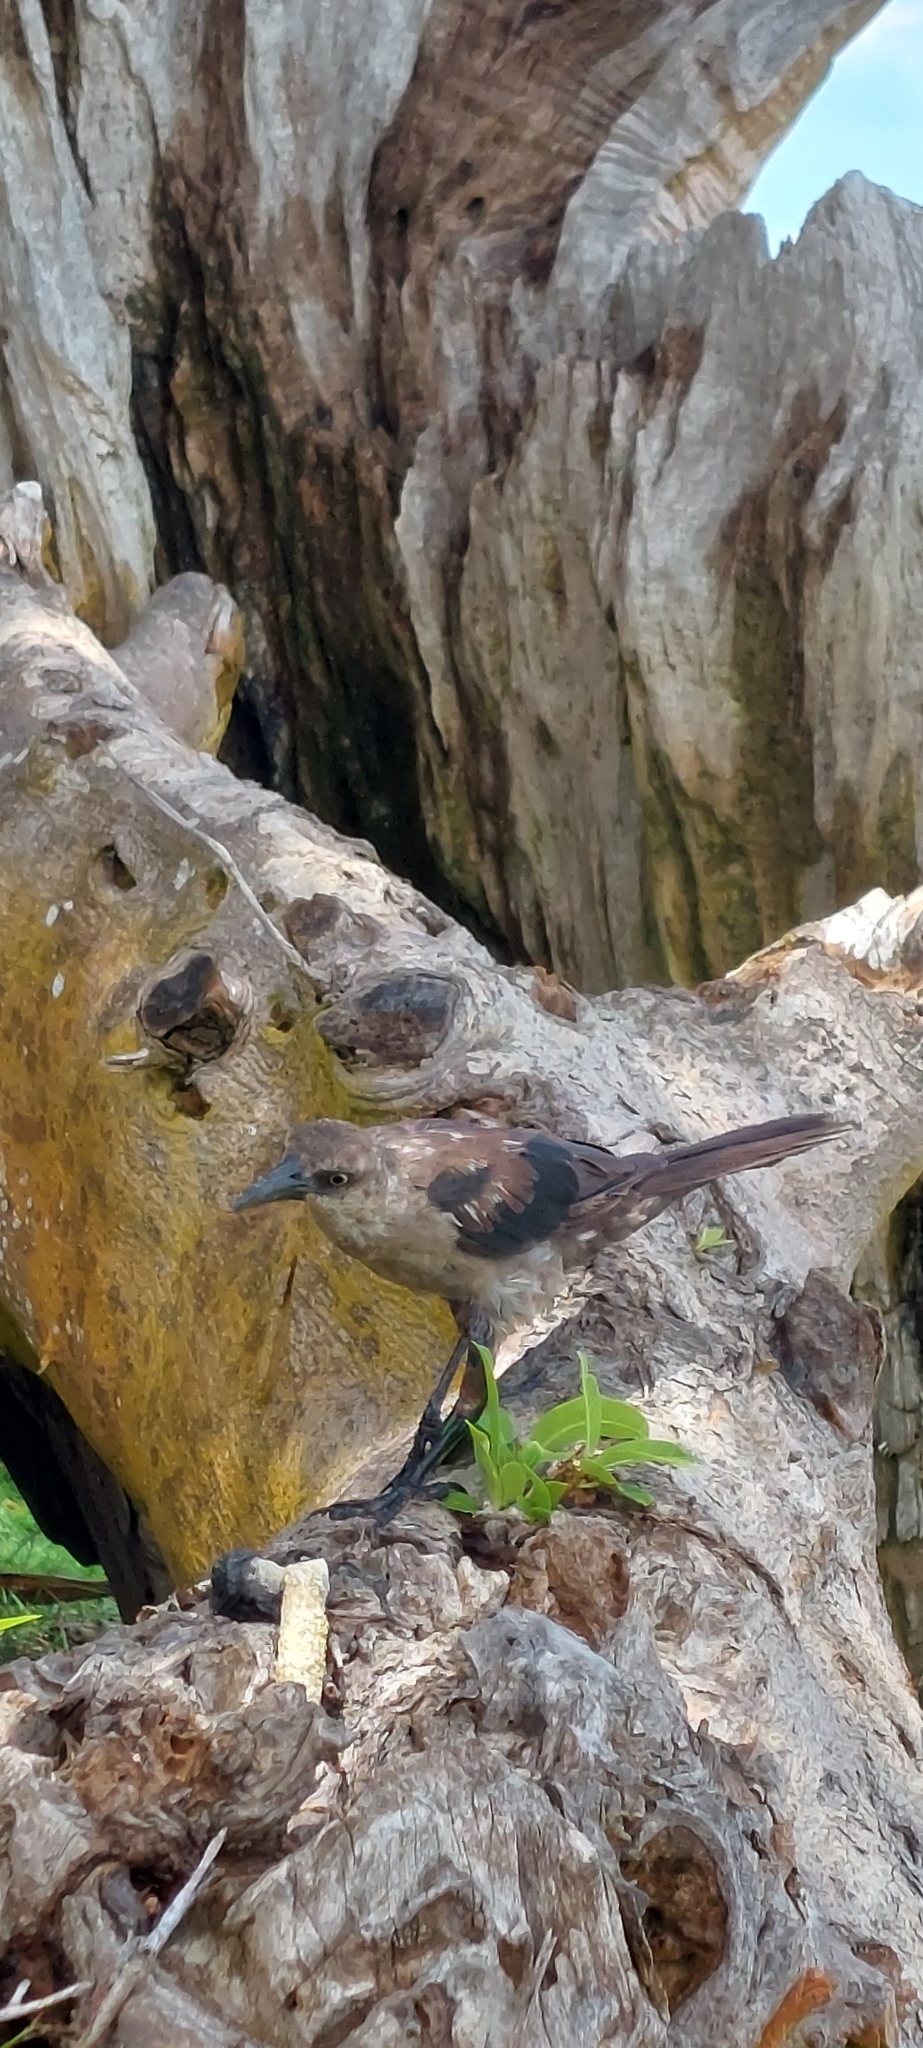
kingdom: Animalia
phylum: Chordata
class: Aves
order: Passeriformes
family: Icteridae
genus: Quiscalus
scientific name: Quiscalus mexicanus
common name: Great-tailed grackle
